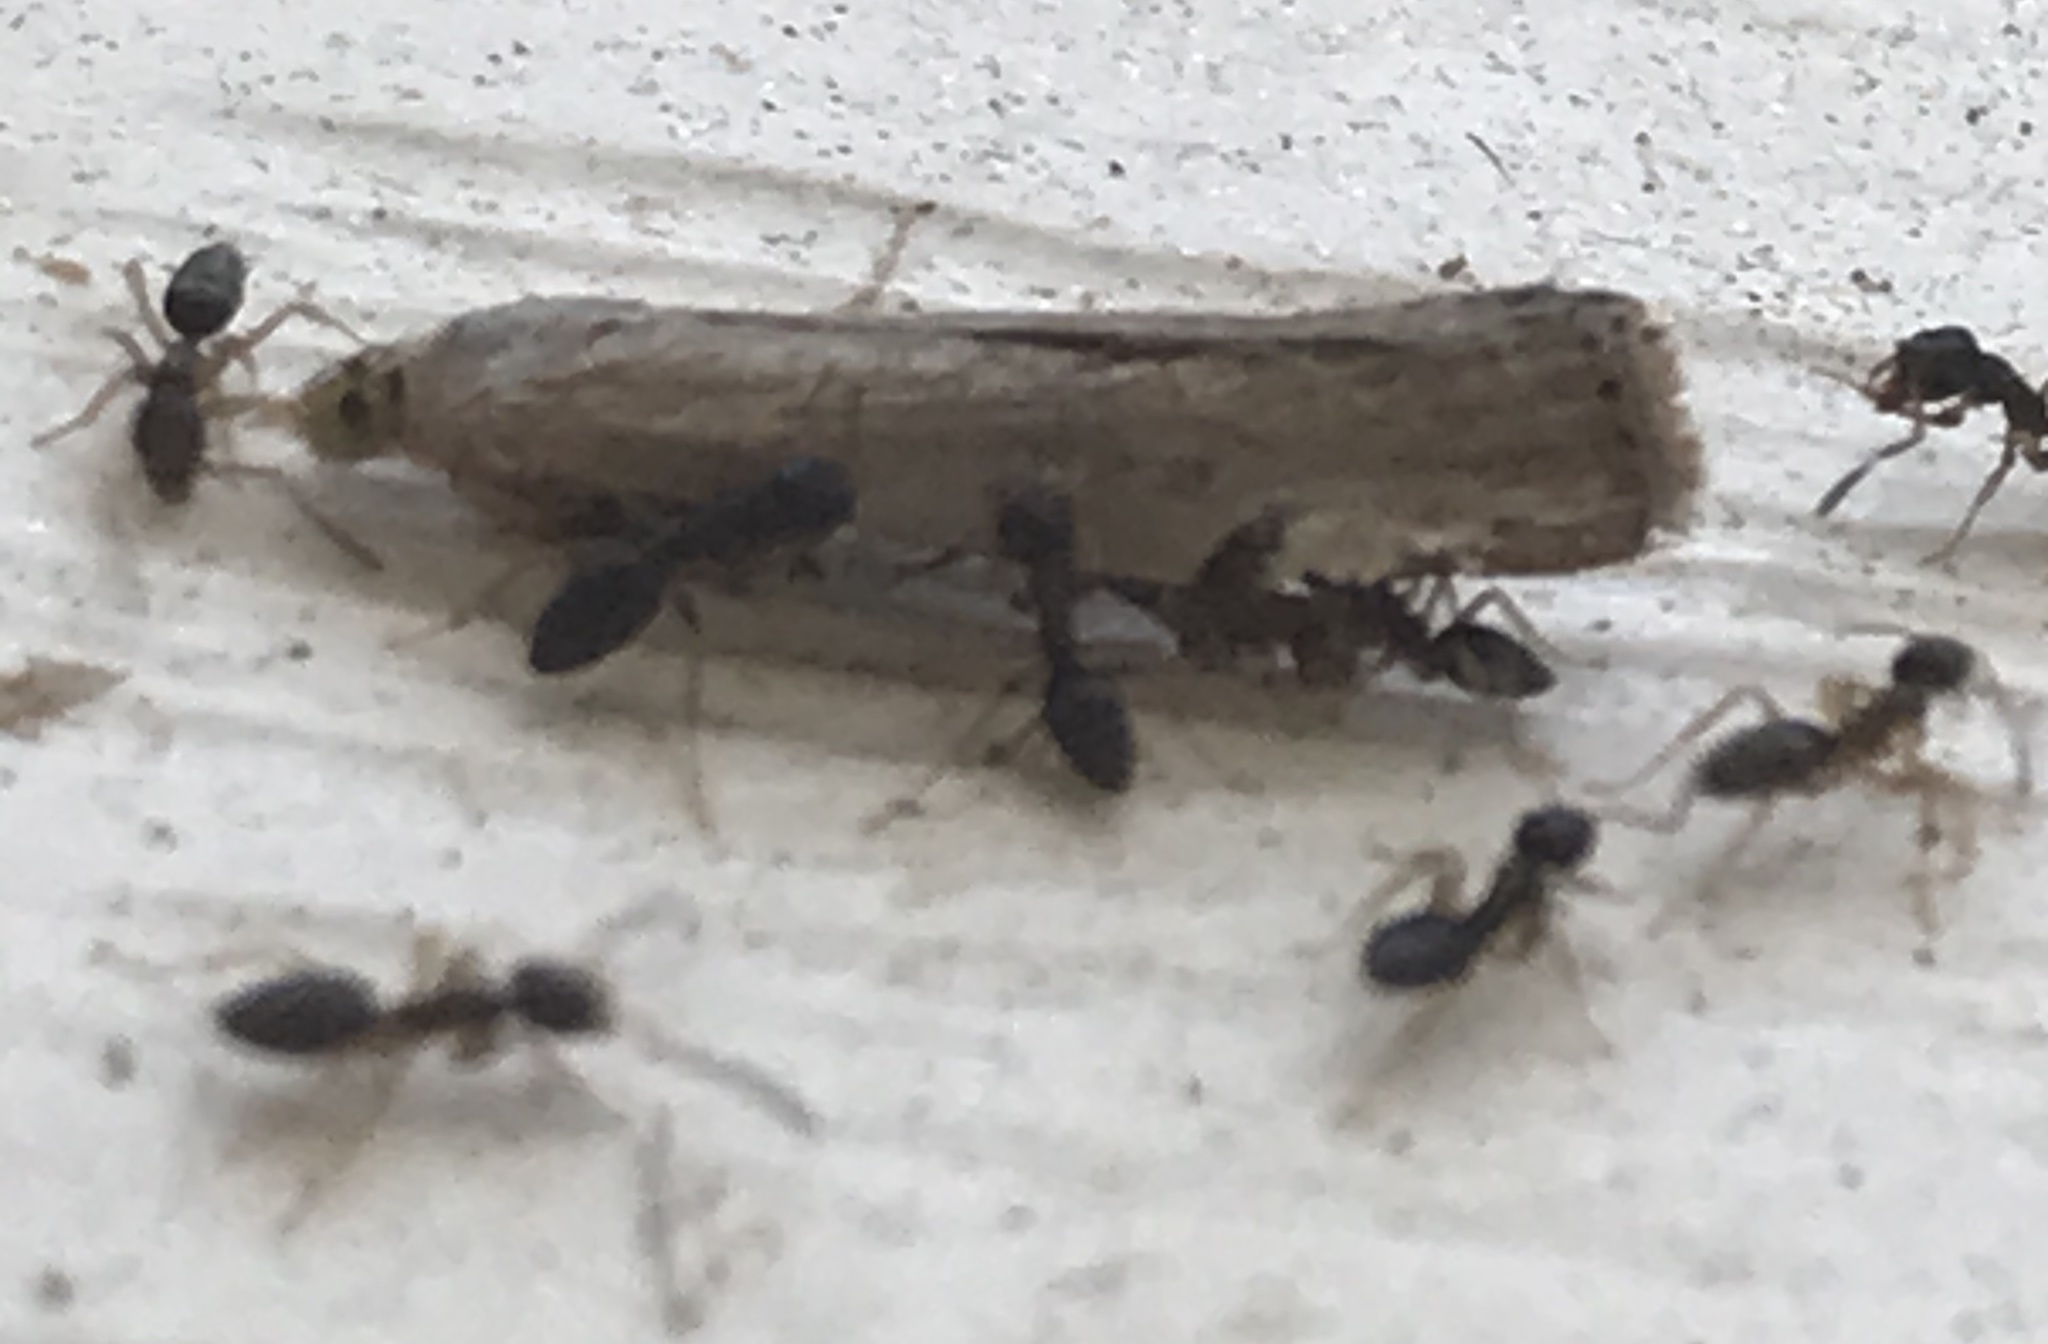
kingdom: Animalia
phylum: Arthropoda
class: Insecta
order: Hymenoptera
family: Formicidae
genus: Tapinoma
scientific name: Tapinoma sessile
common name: Odorous house ant
